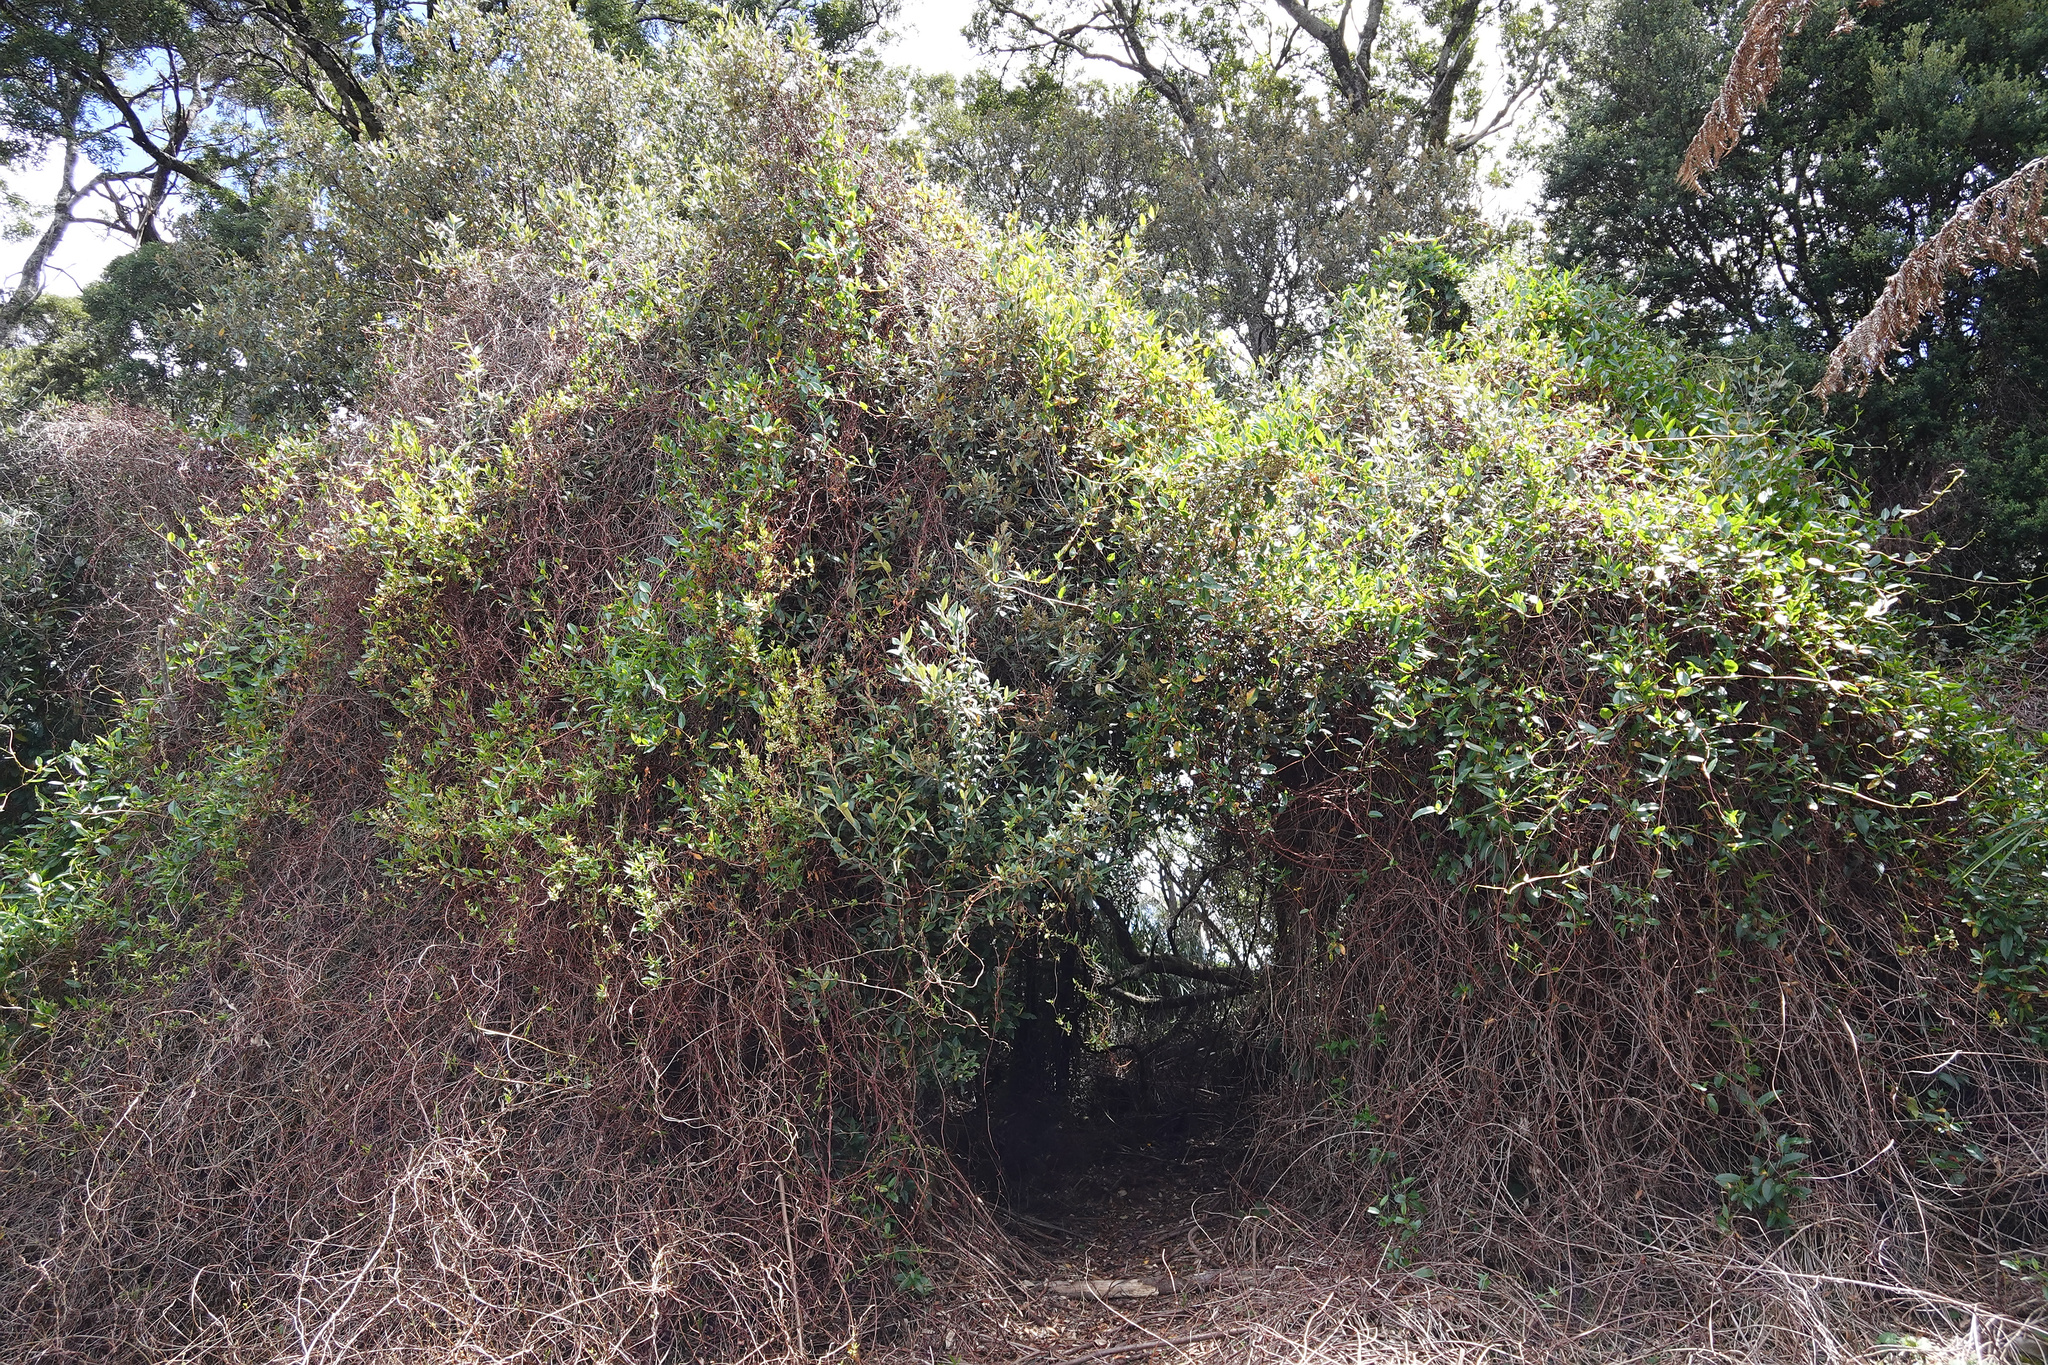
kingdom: Plantae
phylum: Tracheophyta
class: Magnoliopsida
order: Caryophyllales
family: Polygonaceae
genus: Muehlenbeckia
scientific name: Muehlenbeckia gunnii
